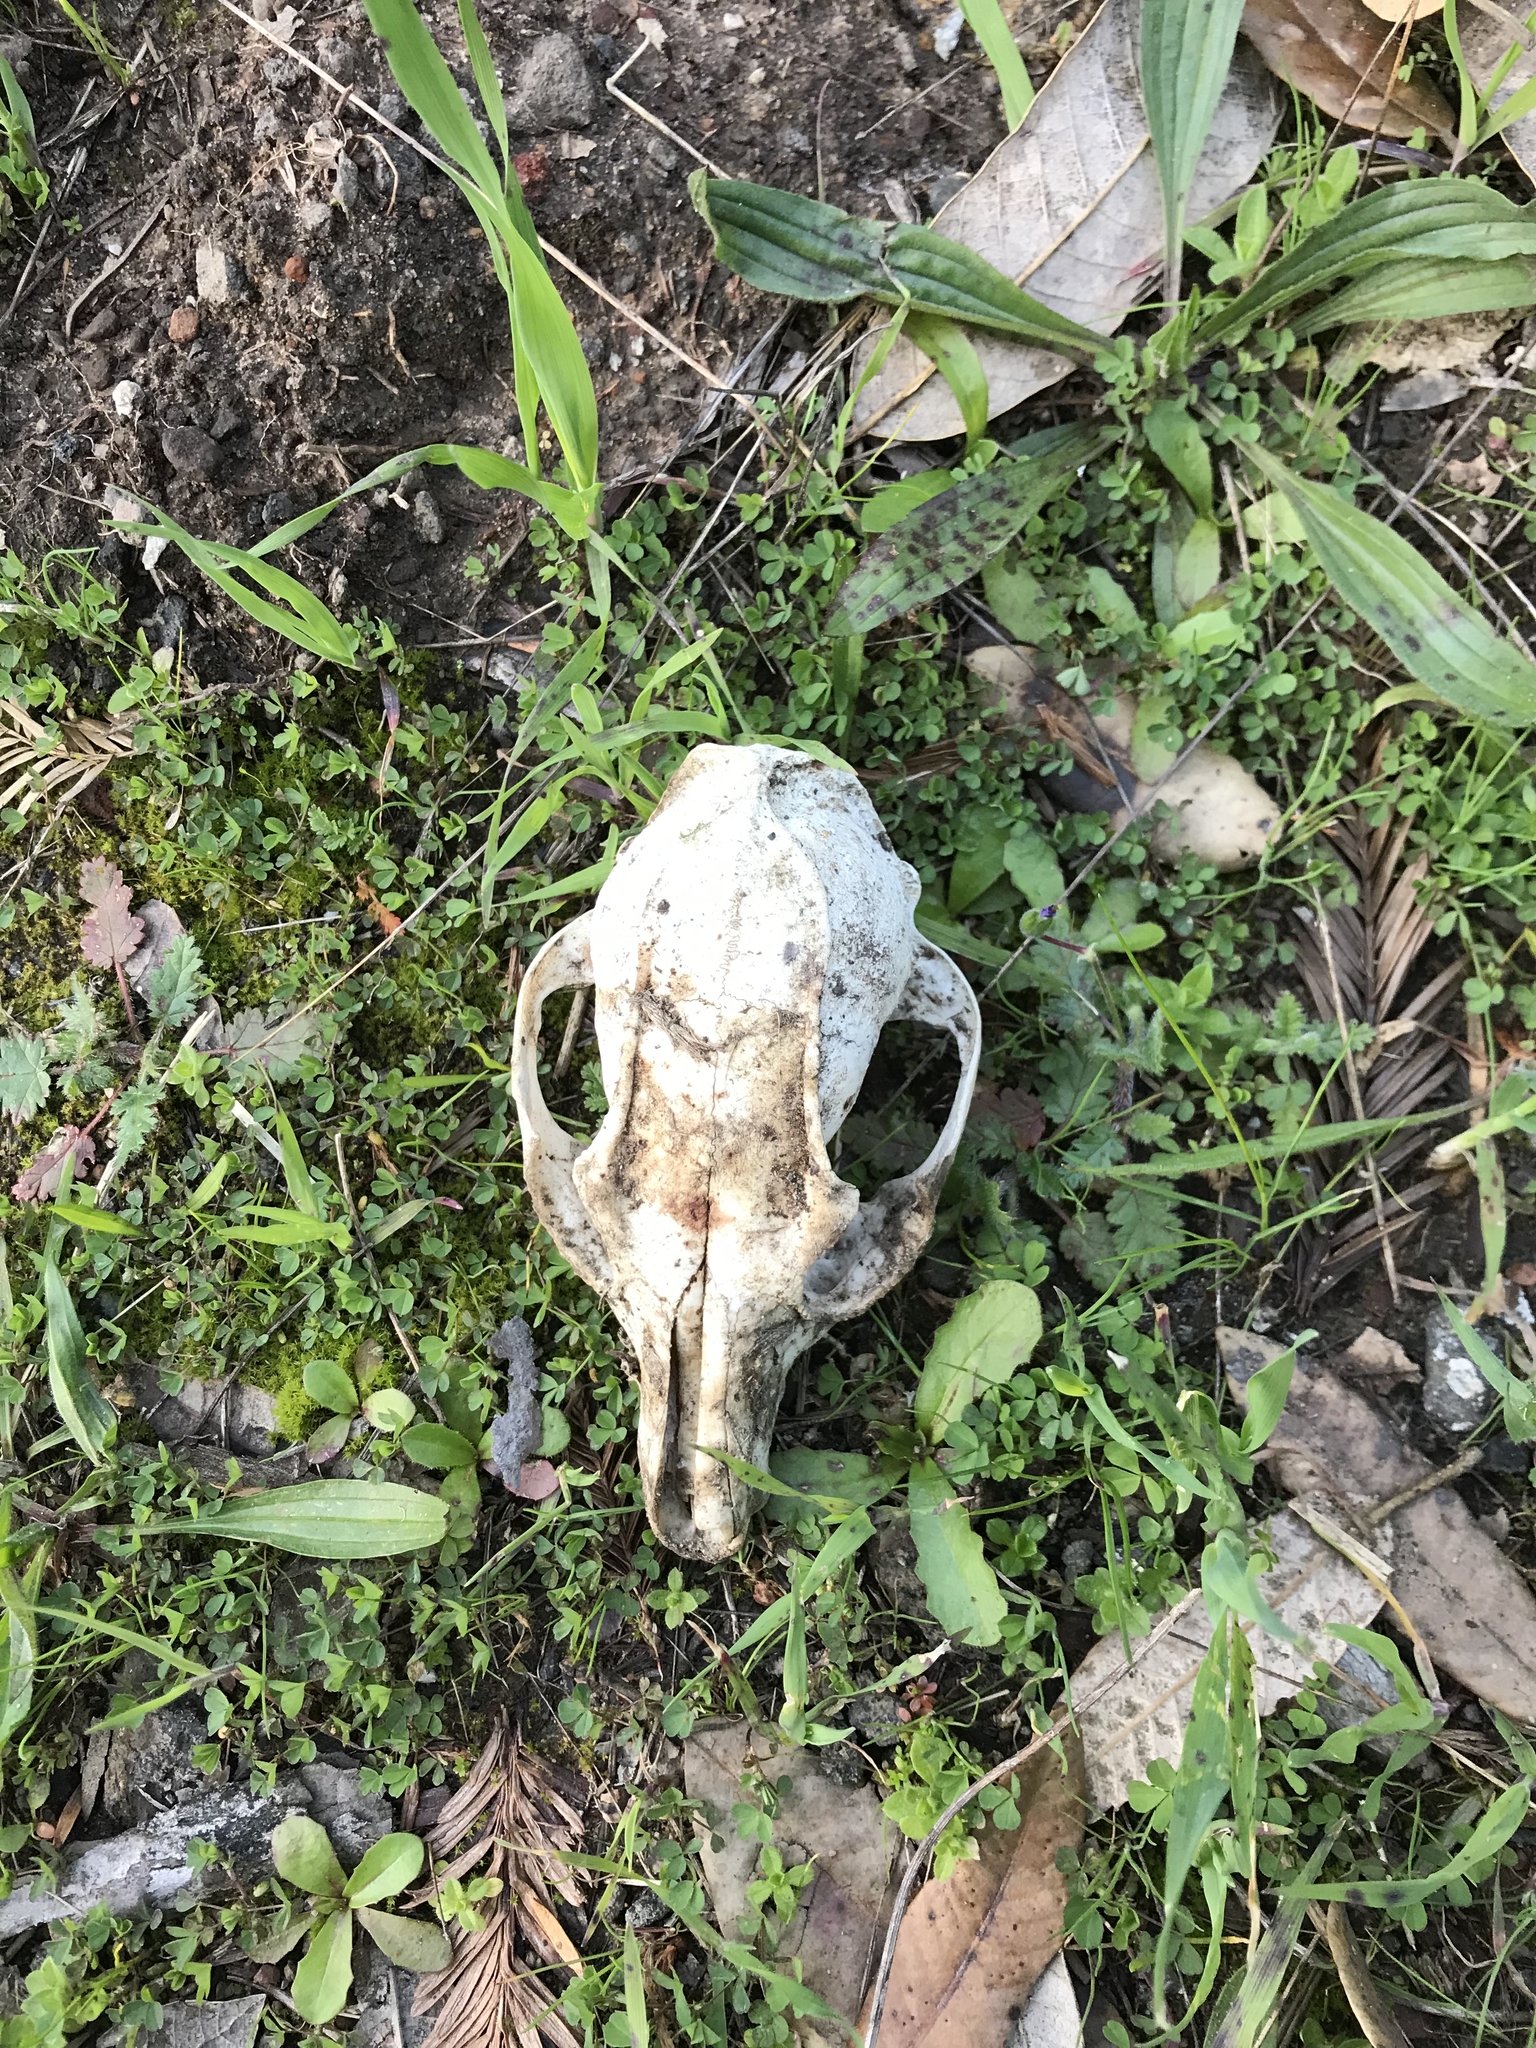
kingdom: Animalia
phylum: Chordata
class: Mammalia
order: Carnivora
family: Canidae
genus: Urocyon
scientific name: Urocyon cinereoargenteus
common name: Gray fox
